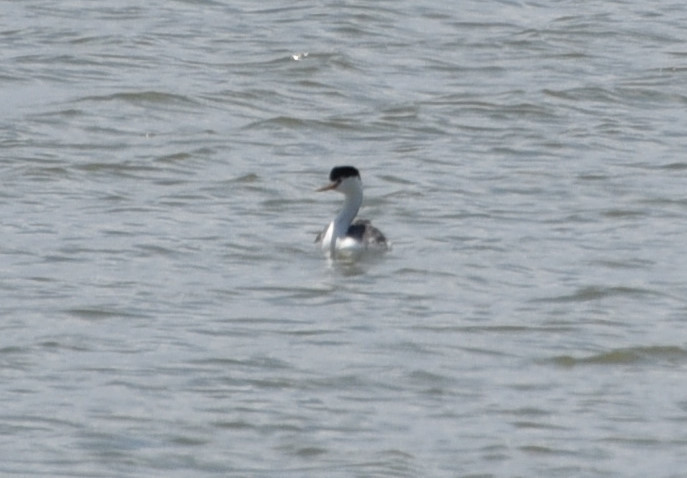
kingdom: Animalia
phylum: Chordata
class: Aves
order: Podicipediformes
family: Podicipedidae
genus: Aechmophorus
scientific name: Aechmophorus clarkii
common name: Clark's grebe
